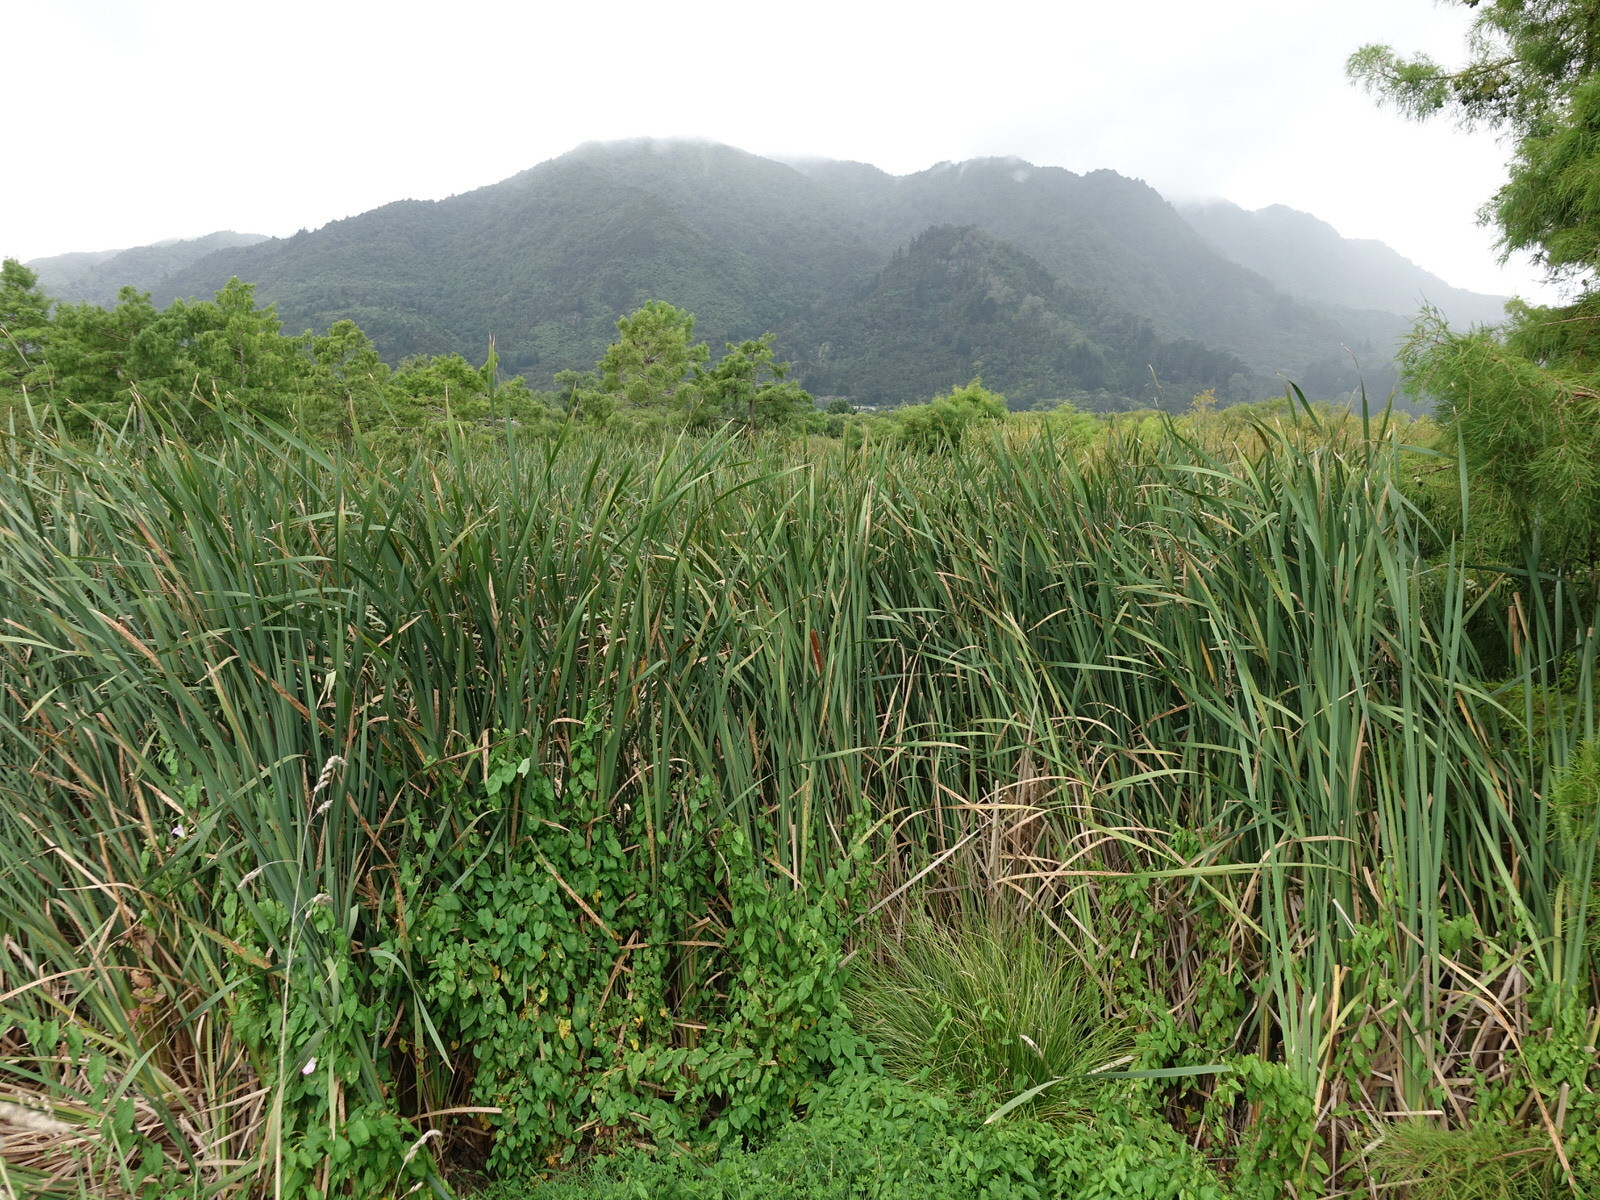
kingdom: Plantae
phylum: Tracheophyta
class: Liliopsida
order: Poales
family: Typhaceae
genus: Typha
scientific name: Typha orientalis
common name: Bullrush
